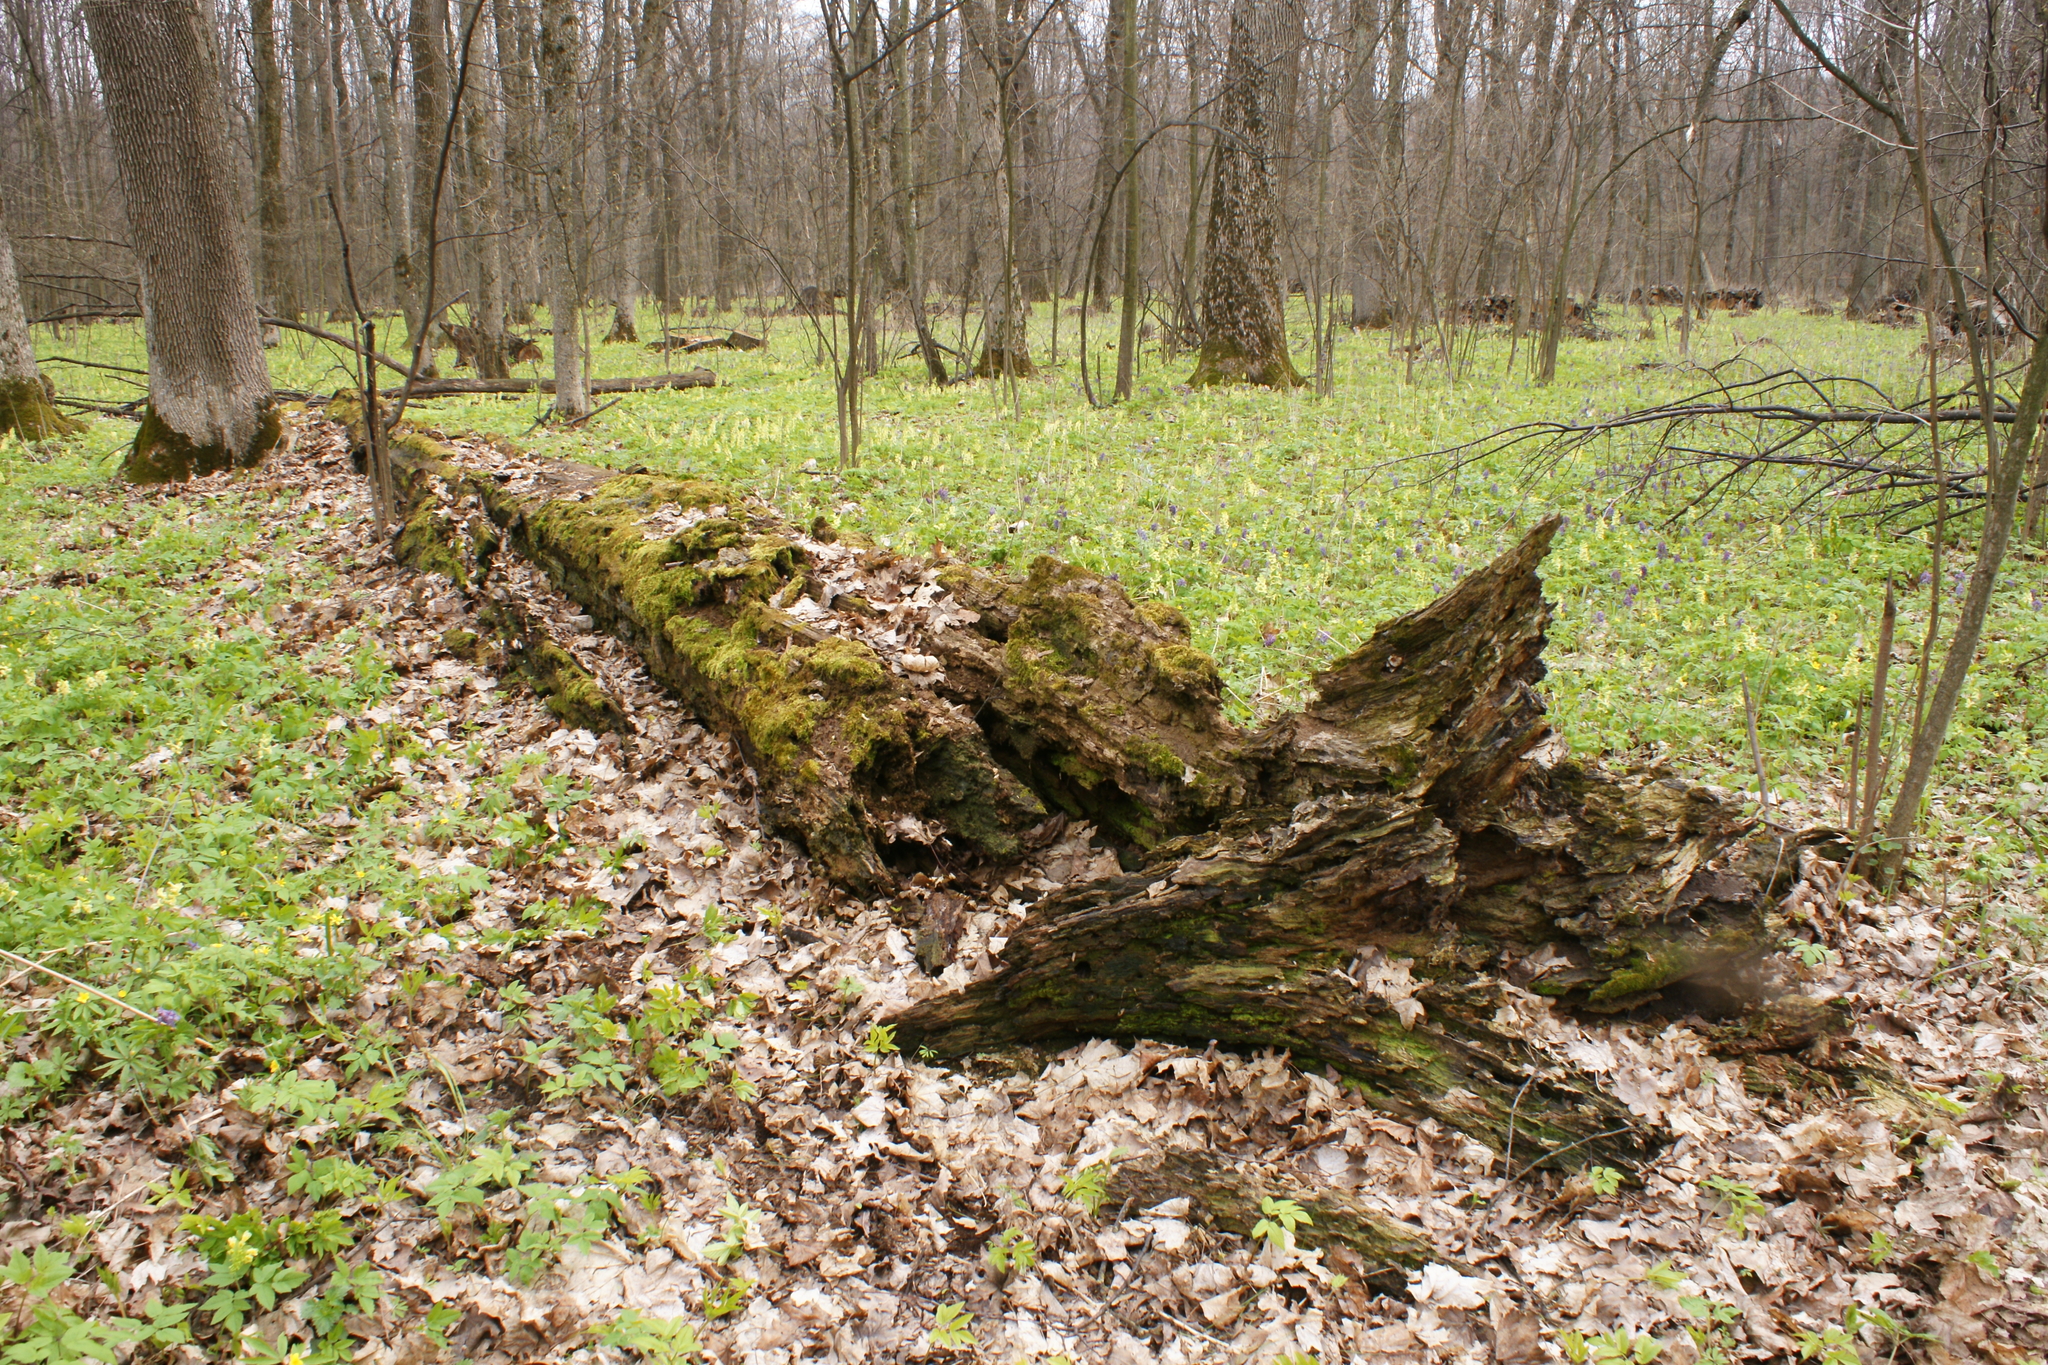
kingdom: Plantae
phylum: Tracheophyta
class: Magnoliopsida
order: Ranunculales
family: Papaveraceae
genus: Corydalis
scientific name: Corydalis cava
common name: Hollowroot
